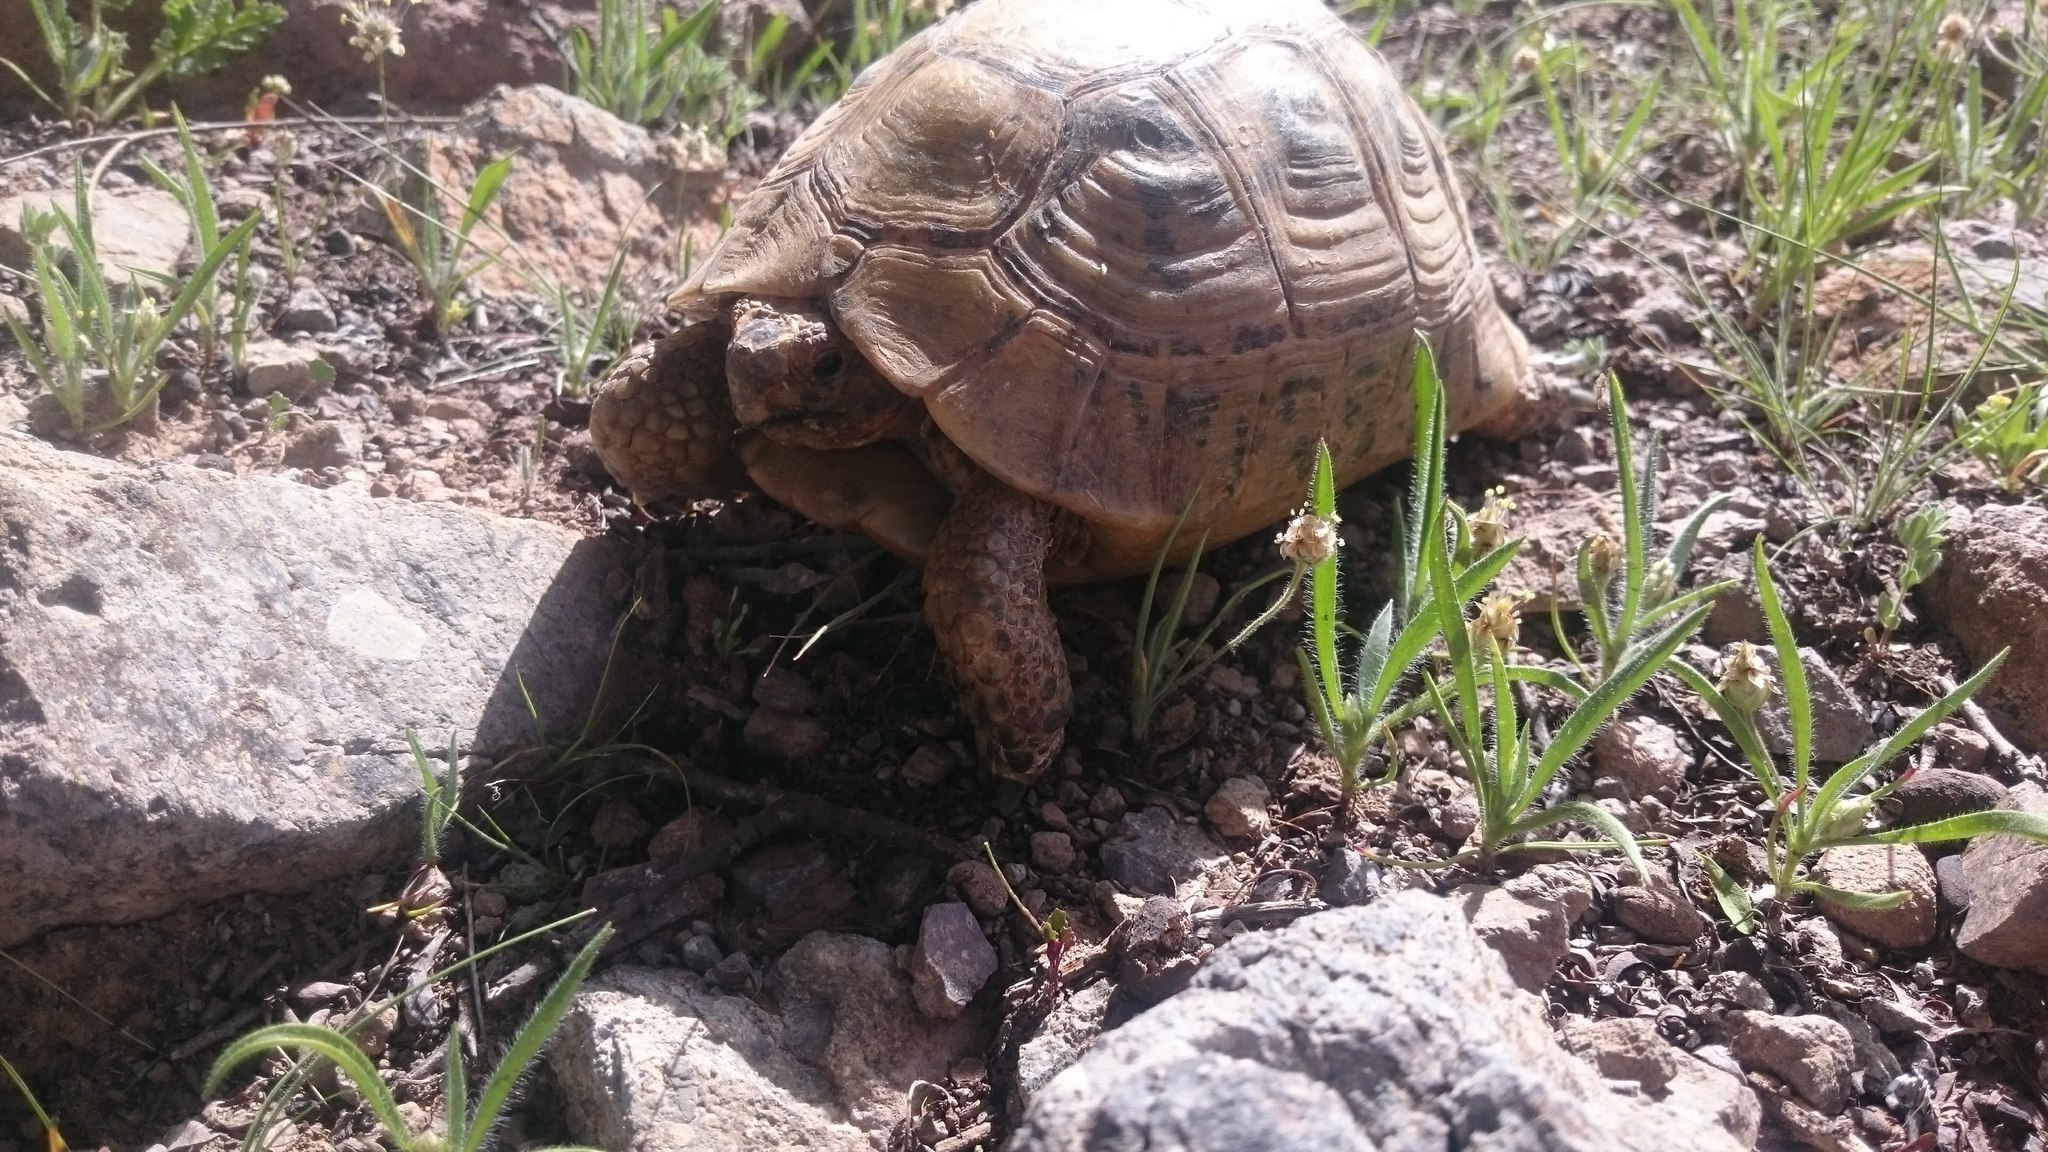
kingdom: Animalia
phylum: Chordata
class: Testudines
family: Testudinidae
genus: Testudo
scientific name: Testudo graeca
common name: Common tortoise
